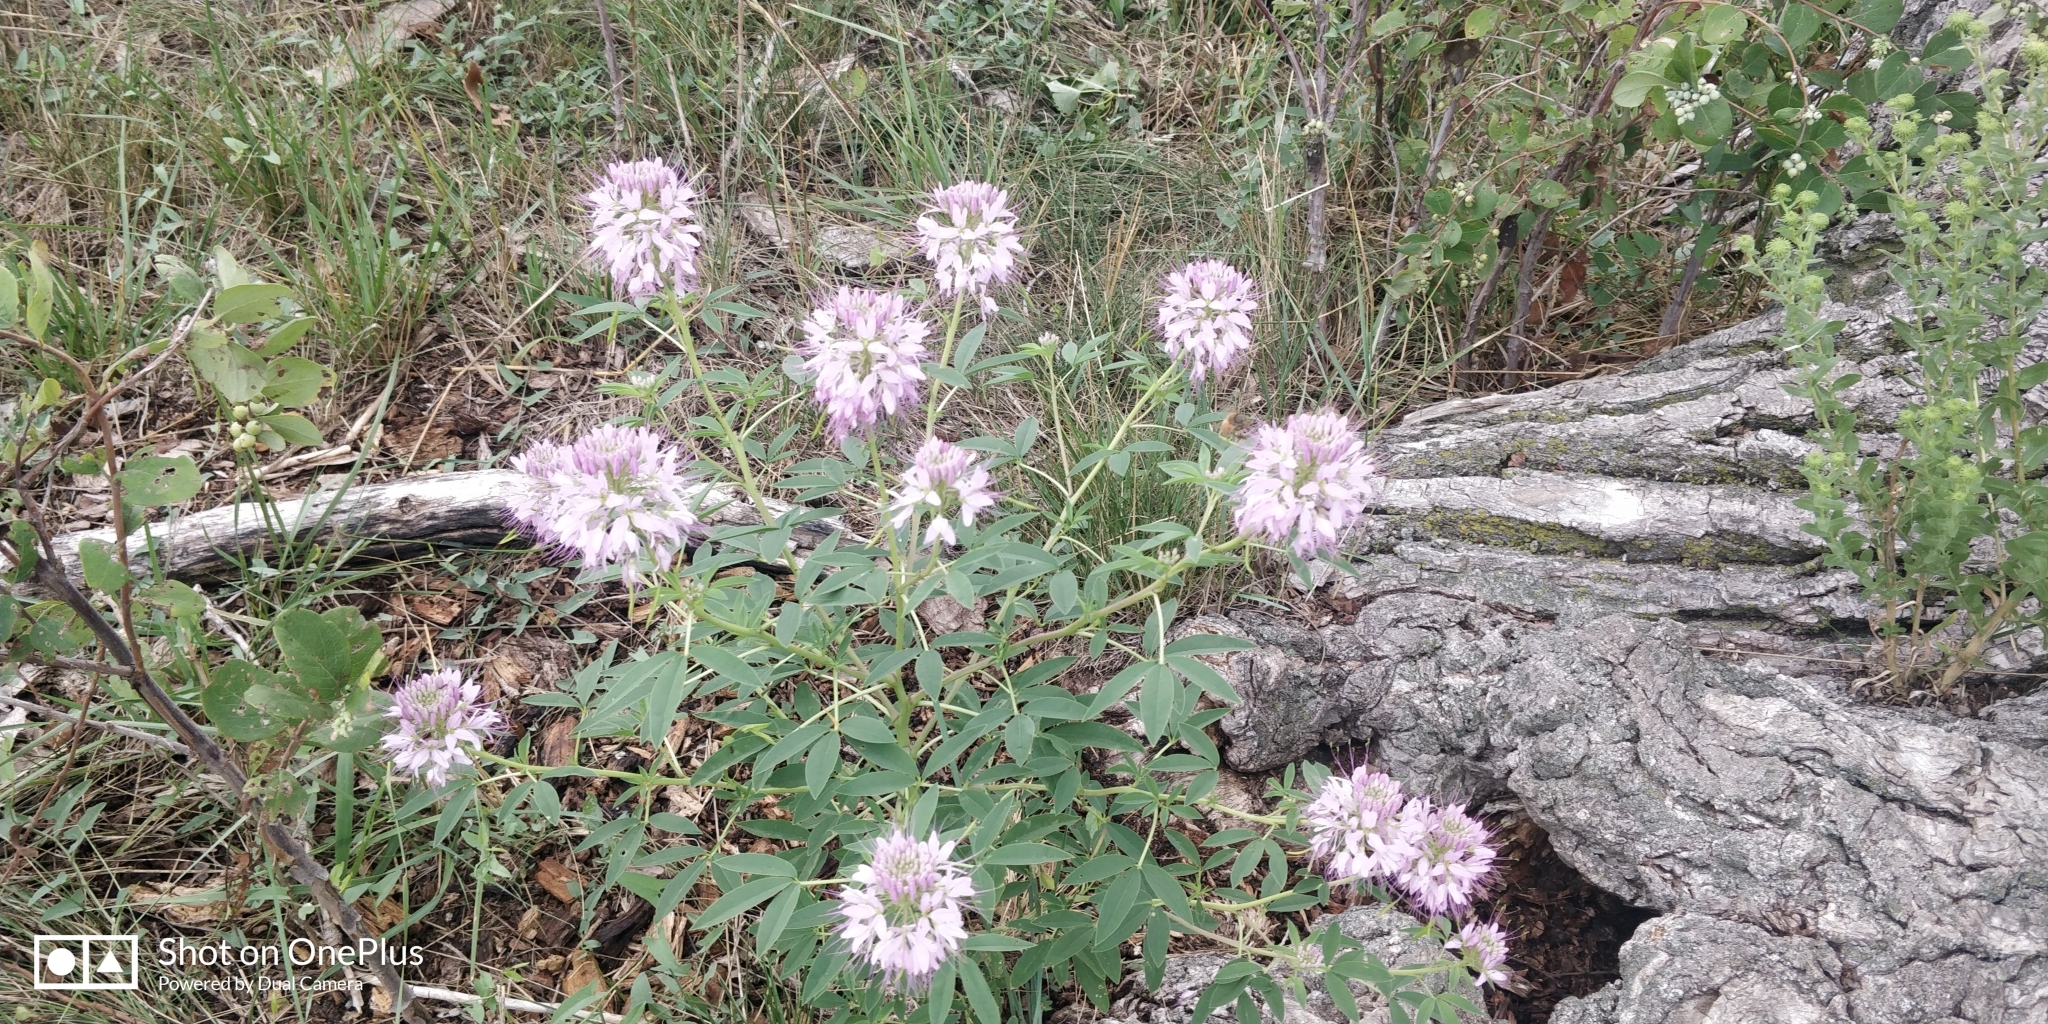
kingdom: Plantae
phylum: Tracheophyta
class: Magnoliopsida
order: Brassicales
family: Cleomaceae
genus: Cleomella
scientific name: Cleomella serrulata
